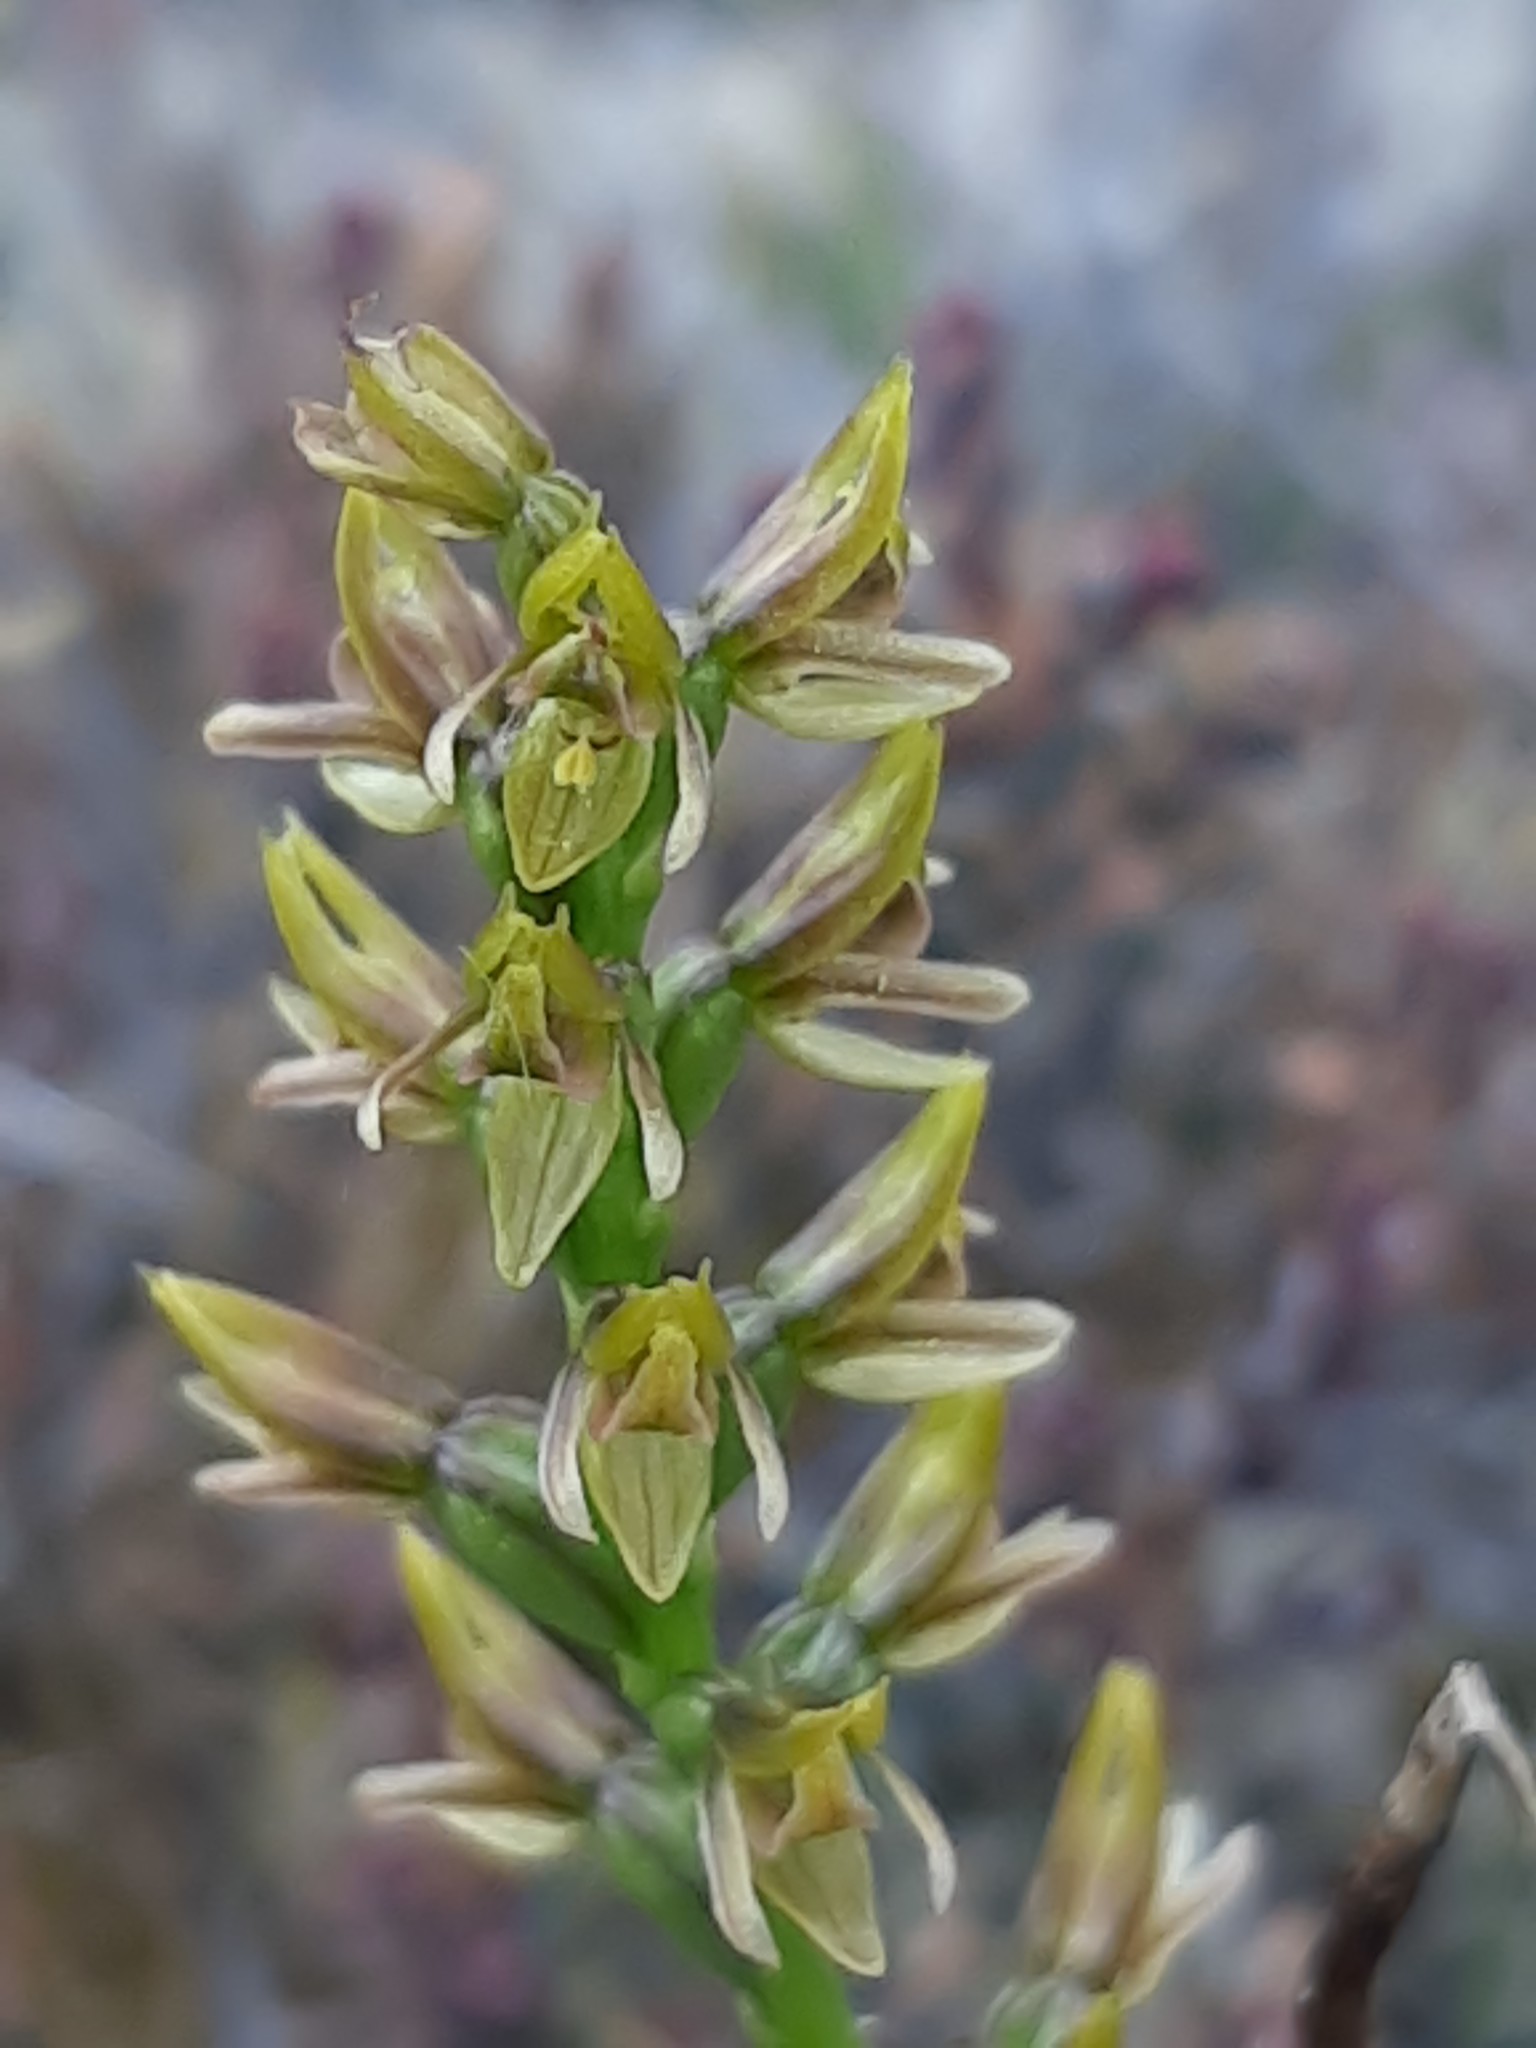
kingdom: Plantae
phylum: Tracheophyta
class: Liliopsida
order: Asparagales
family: Orchidaceae
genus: Prasophyllum
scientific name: Prasophyllum colensoi
